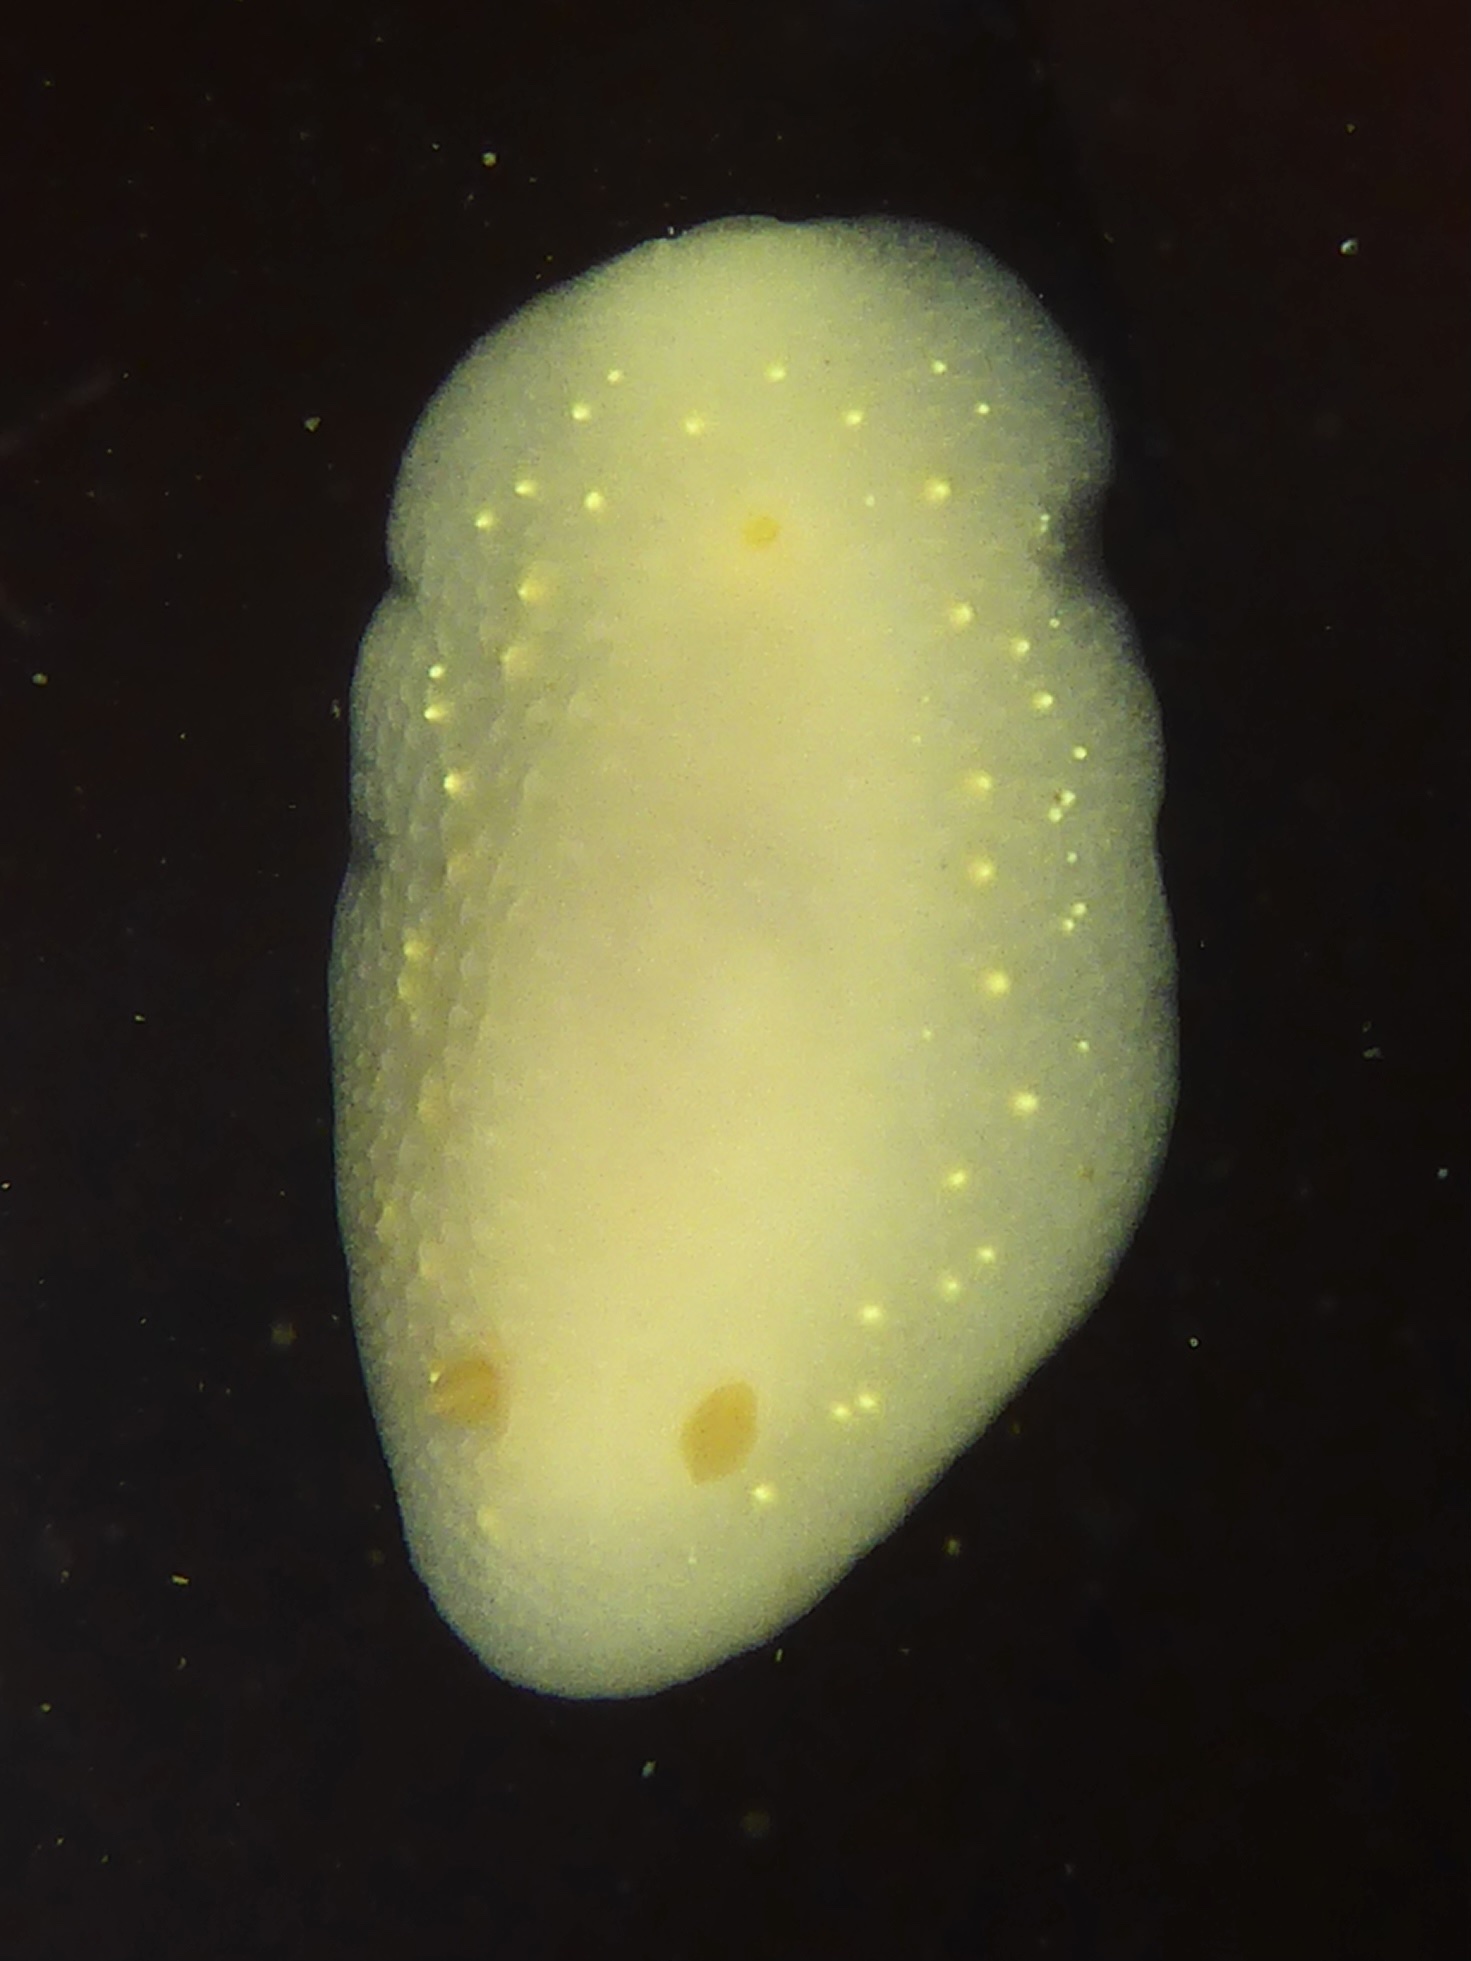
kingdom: Animalia
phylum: Mollusca
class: Gastropoda
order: Nudibranchia
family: Cadlinidae
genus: Cadlina
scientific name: Cadlina modesta
